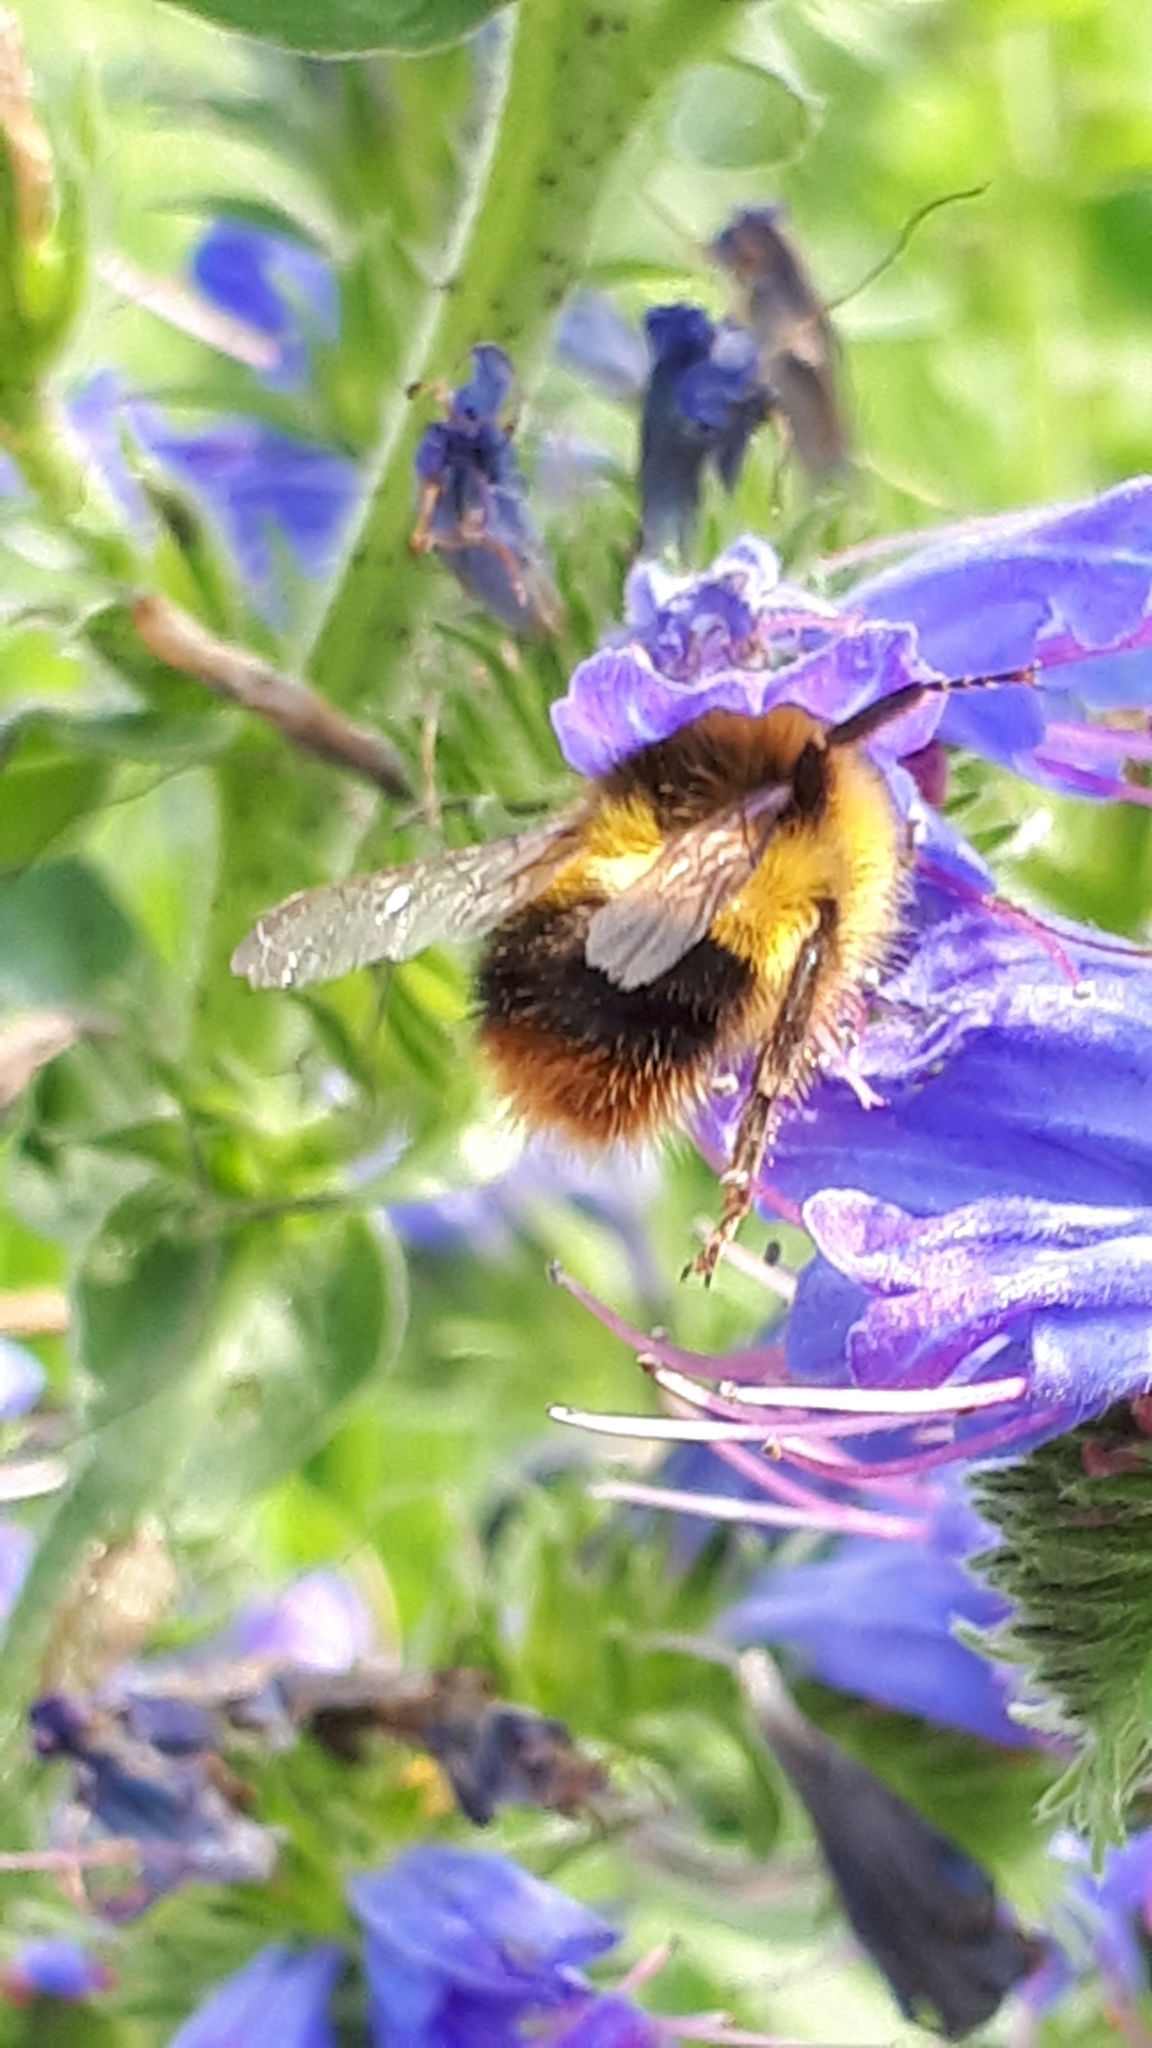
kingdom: Animalia
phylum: Arthropoda
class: Insecta
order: Hymenoptera
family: Apidae
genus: Bombus
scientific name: Bombus pratorum
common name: Early humble-bee
